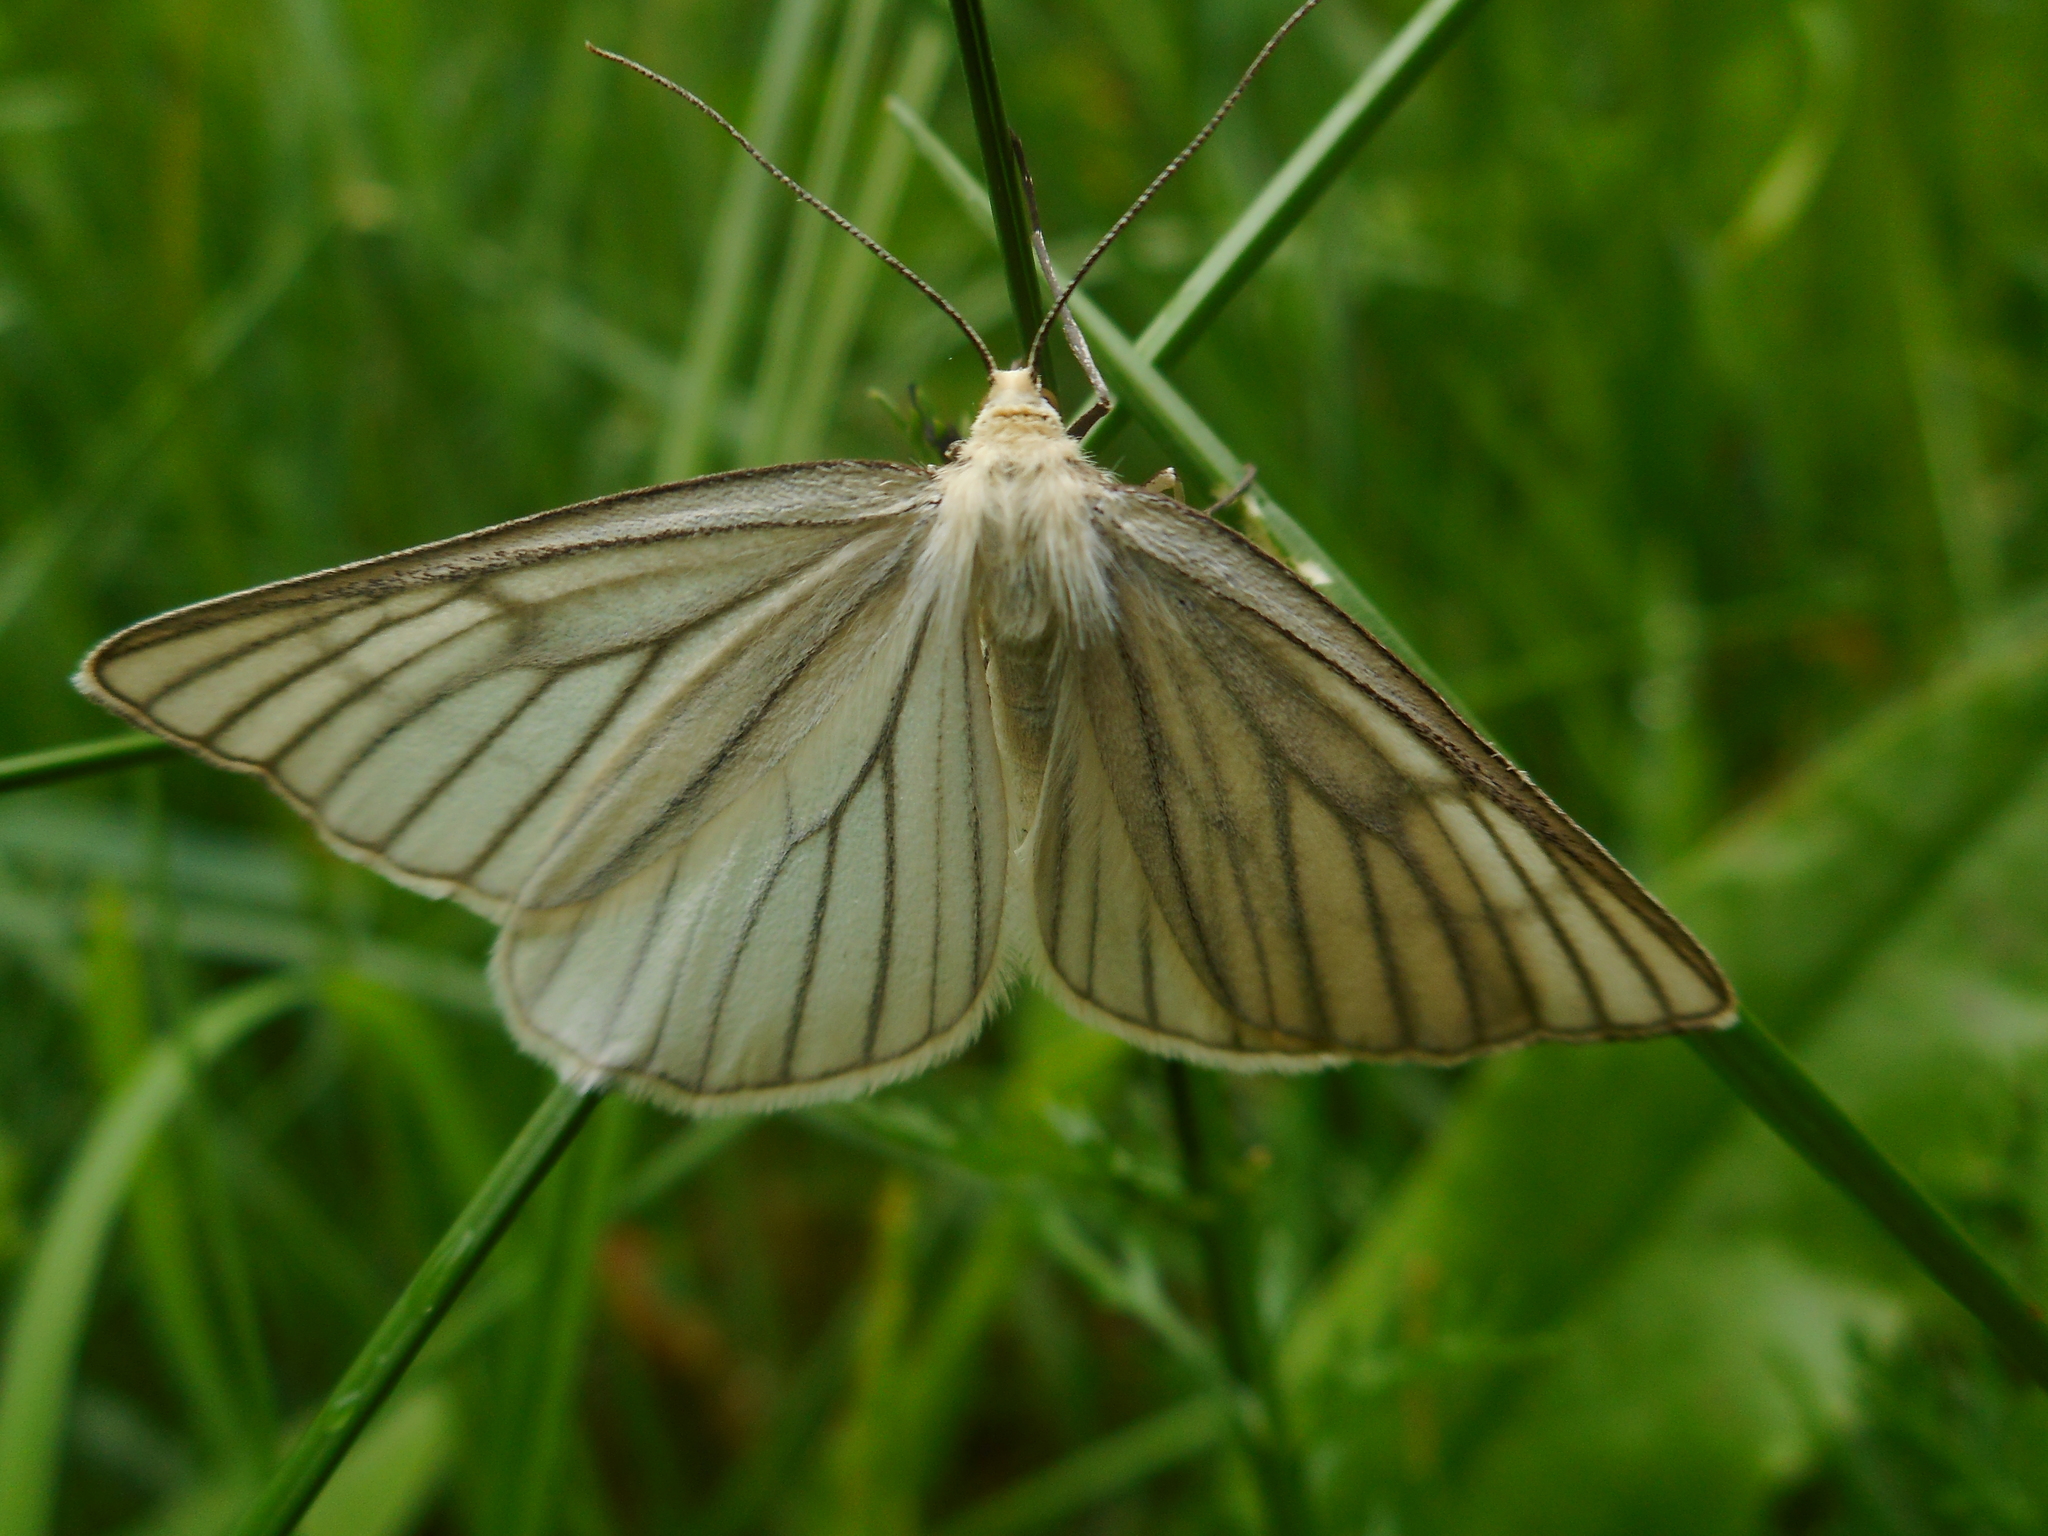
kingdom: Animalia
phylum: Arthropoda
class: Insecta
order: Lepidoptera
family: Geometridae
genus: Siona
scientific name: Siona lineata
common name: Black-veined moth
